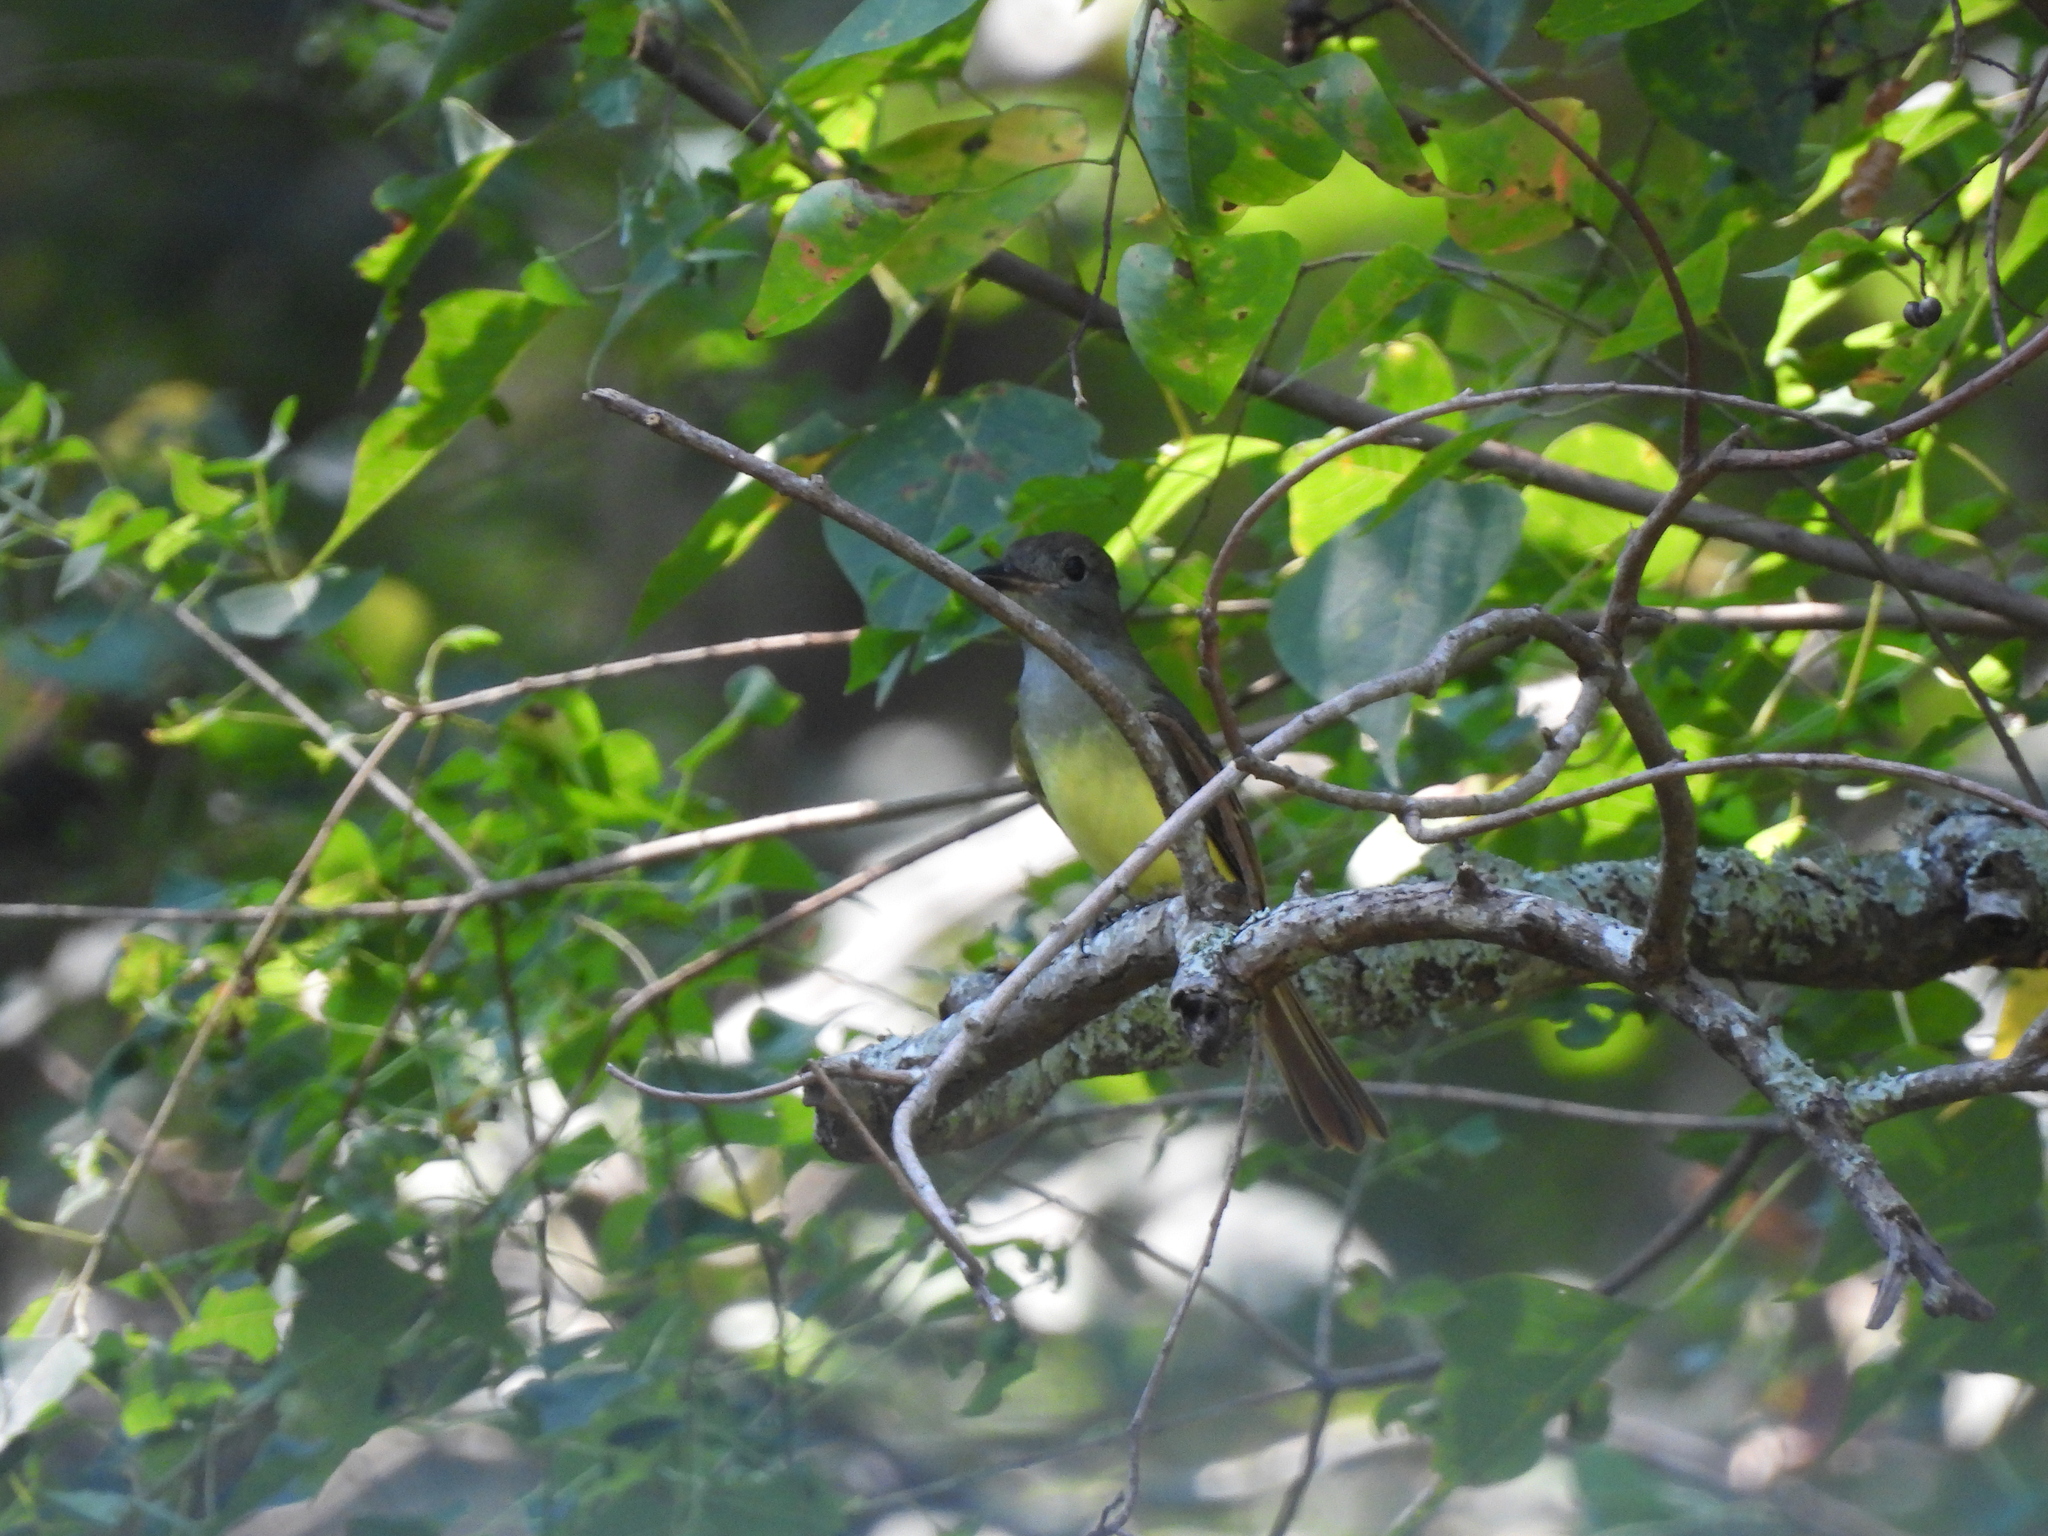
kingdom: Animalia
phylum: Chordata
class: Aves
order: Passeriformes
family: Tyrannidae
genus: Myiarchus
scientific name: Myiarchus crinitus
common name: Great crested flycatcher
